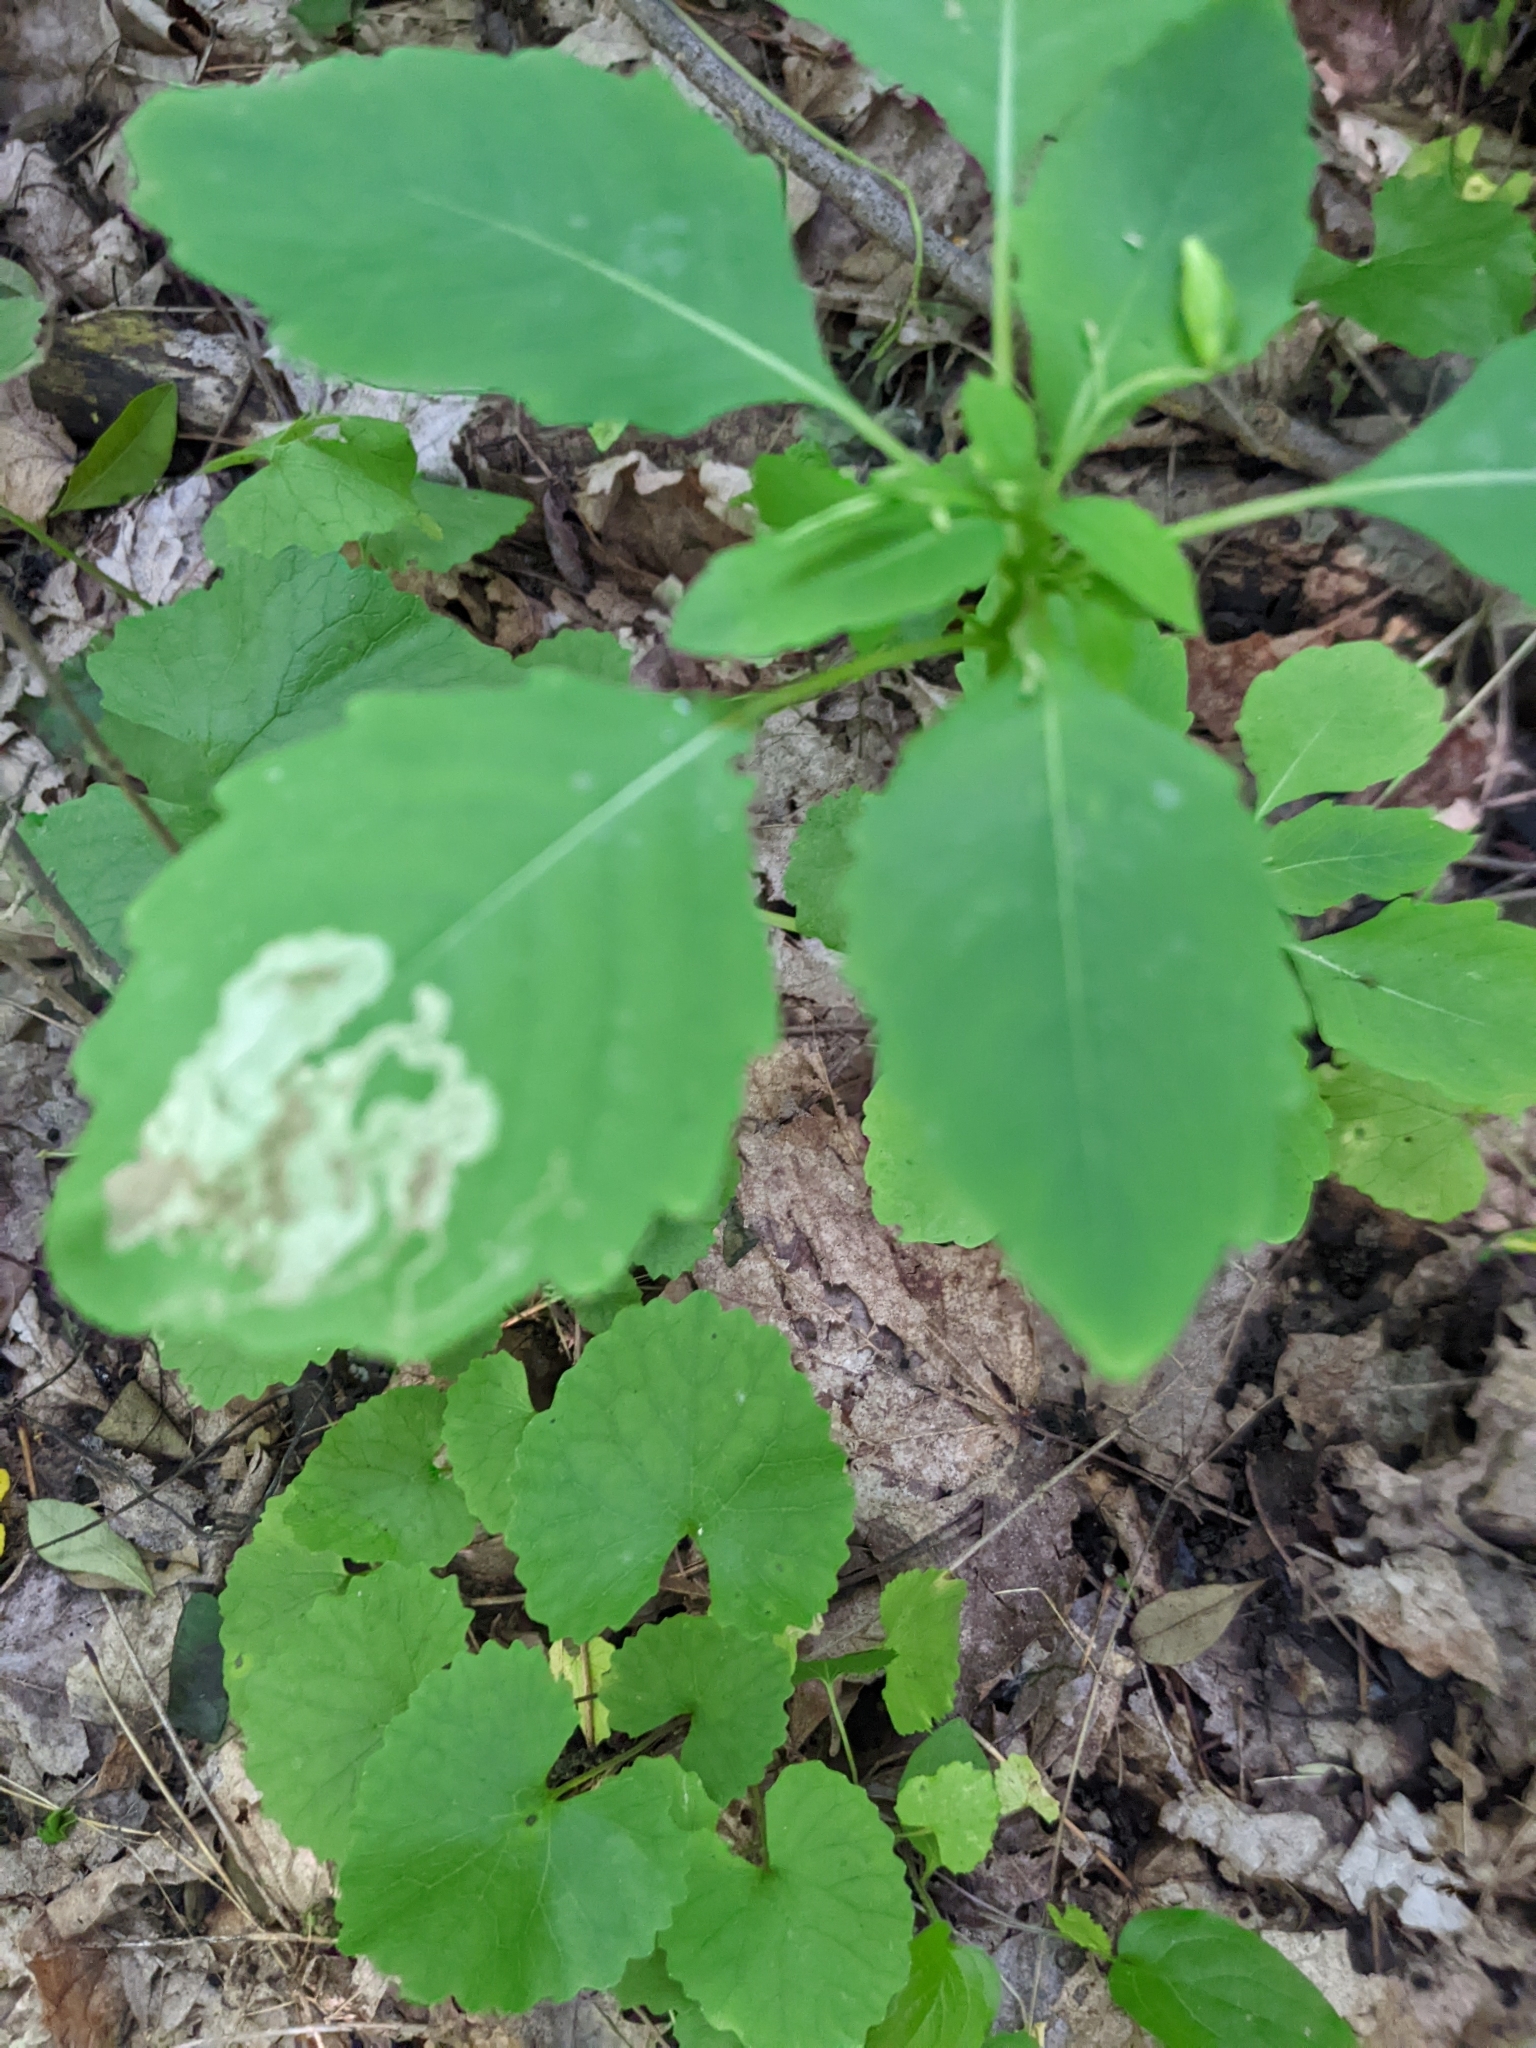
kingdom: Animalia
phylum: Arthropoda
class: Insecta
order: Diptera
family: Agromyzidae
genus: Phytoliriomyza
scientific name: Phytoliriomyza melampyga
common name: Jewelweed leaf-miner fly
